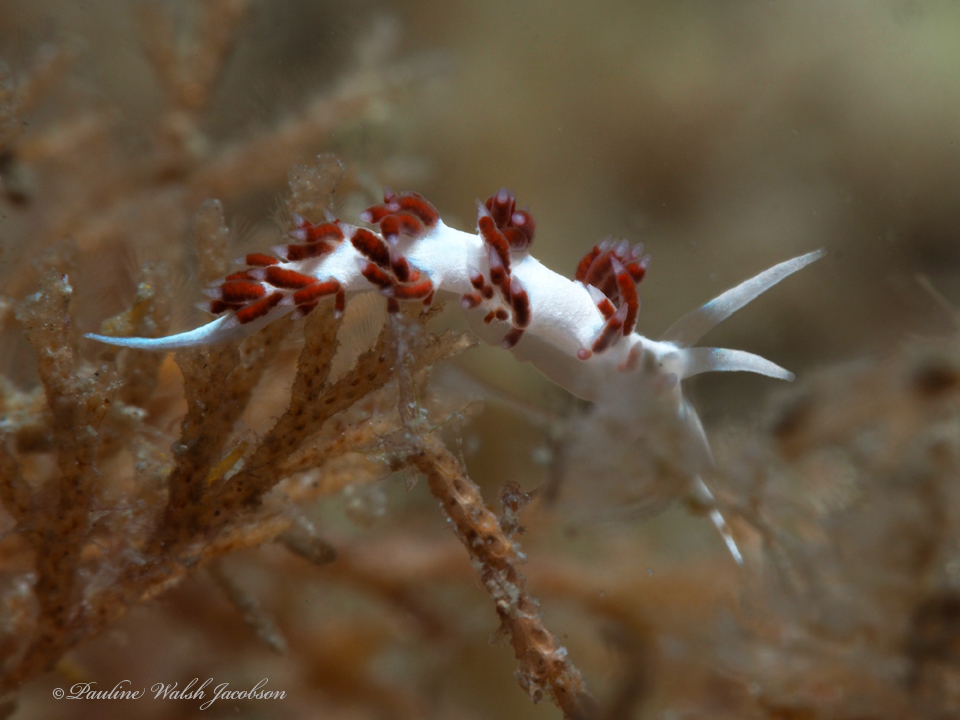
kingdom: Animalia
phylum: Mollusca
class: Gastropoda
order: Nudibranchia
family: Flabellinidae
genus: Flabellina
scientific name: Flabellina dushia
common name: Dushia flabellina
